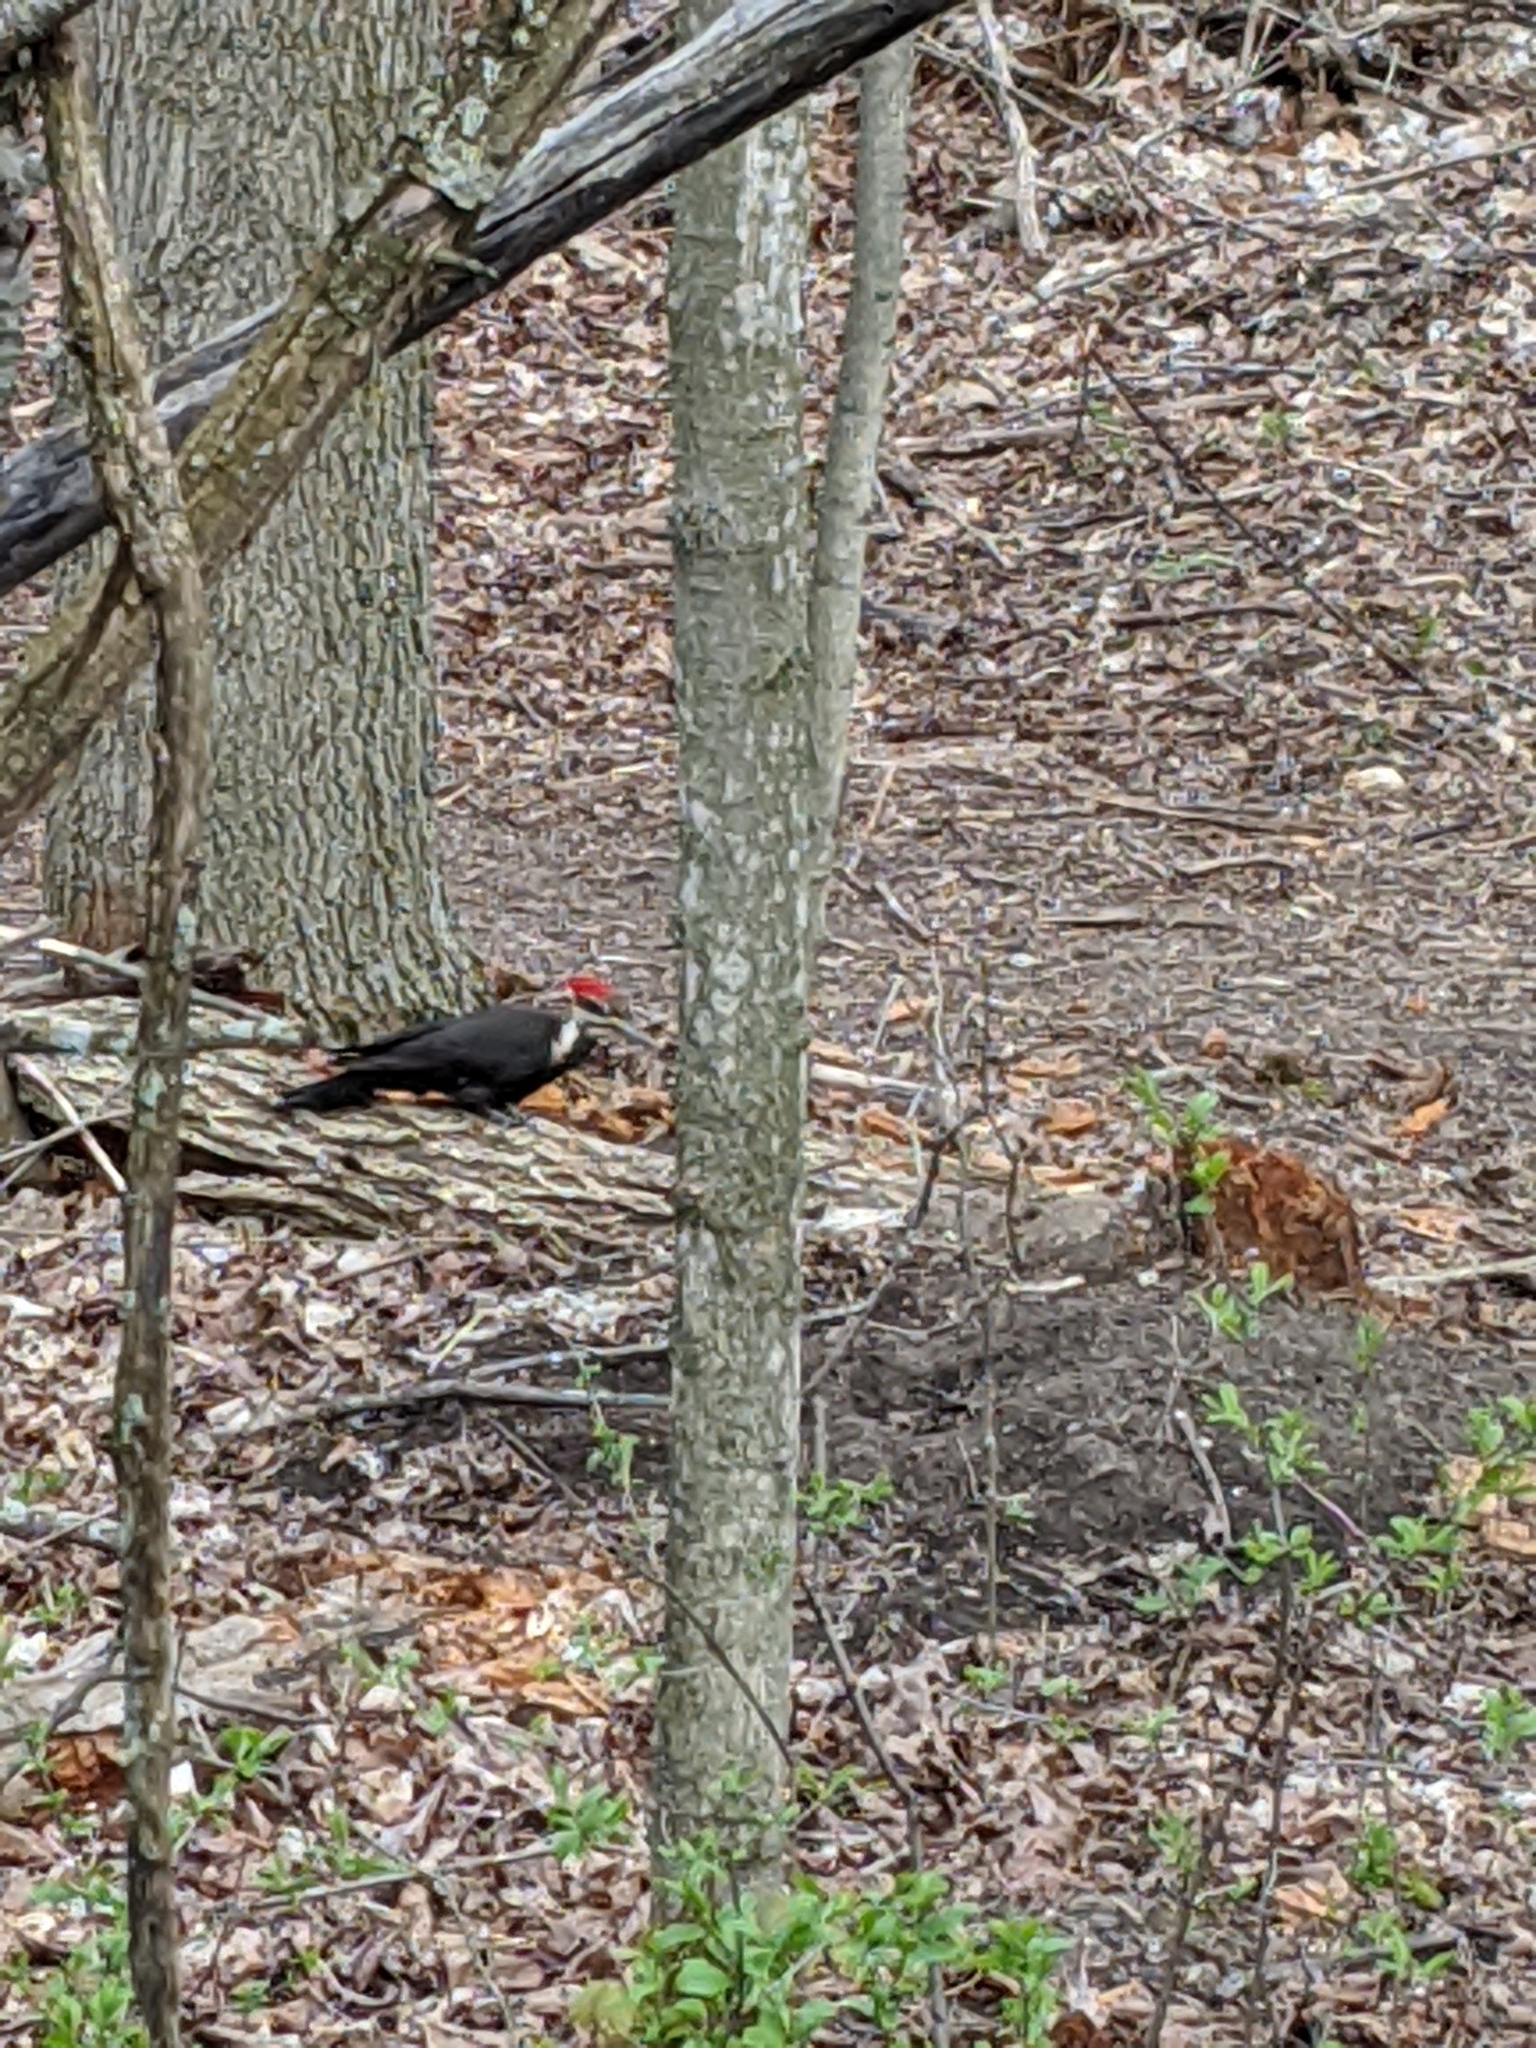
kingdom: Animalia
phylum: Chordata
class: Aves
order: Piciformes
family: Picidae
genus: Dryocopus
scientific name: Dryocopus pileatus
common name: Pileated woodpecker
